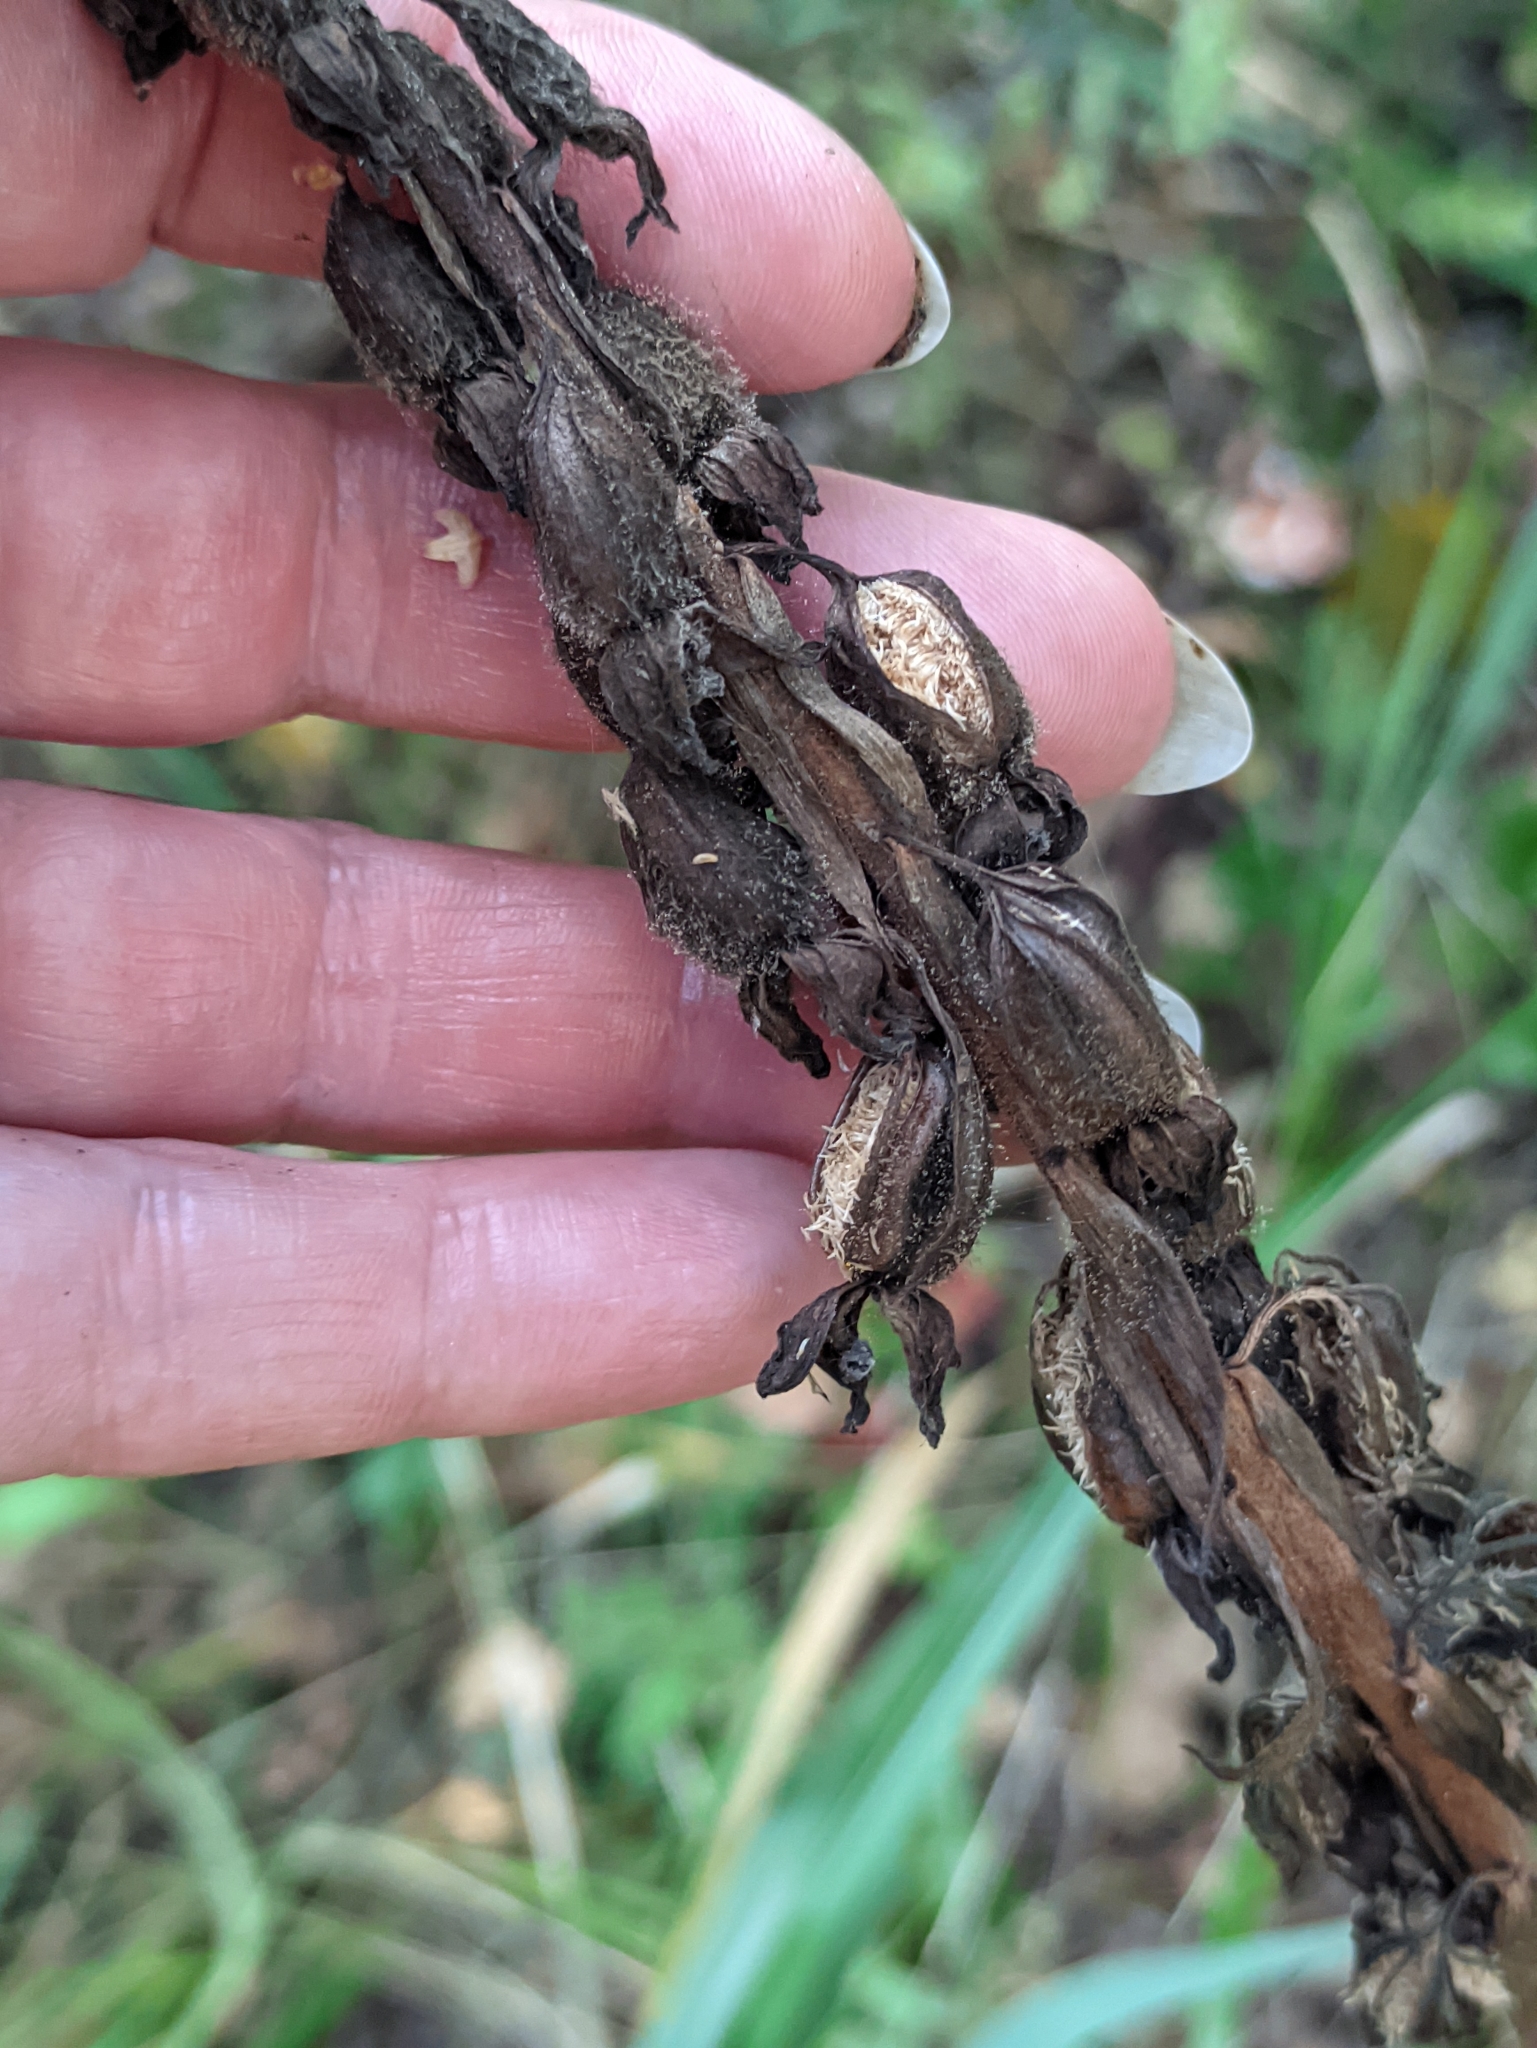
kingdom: Plantae
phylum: Tracheophyta
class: Liliopsida
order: Asparagales
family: Orchidaceae
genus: Epipactis
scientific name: Epipactis helleborine
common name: Broad-leaved helleborine
